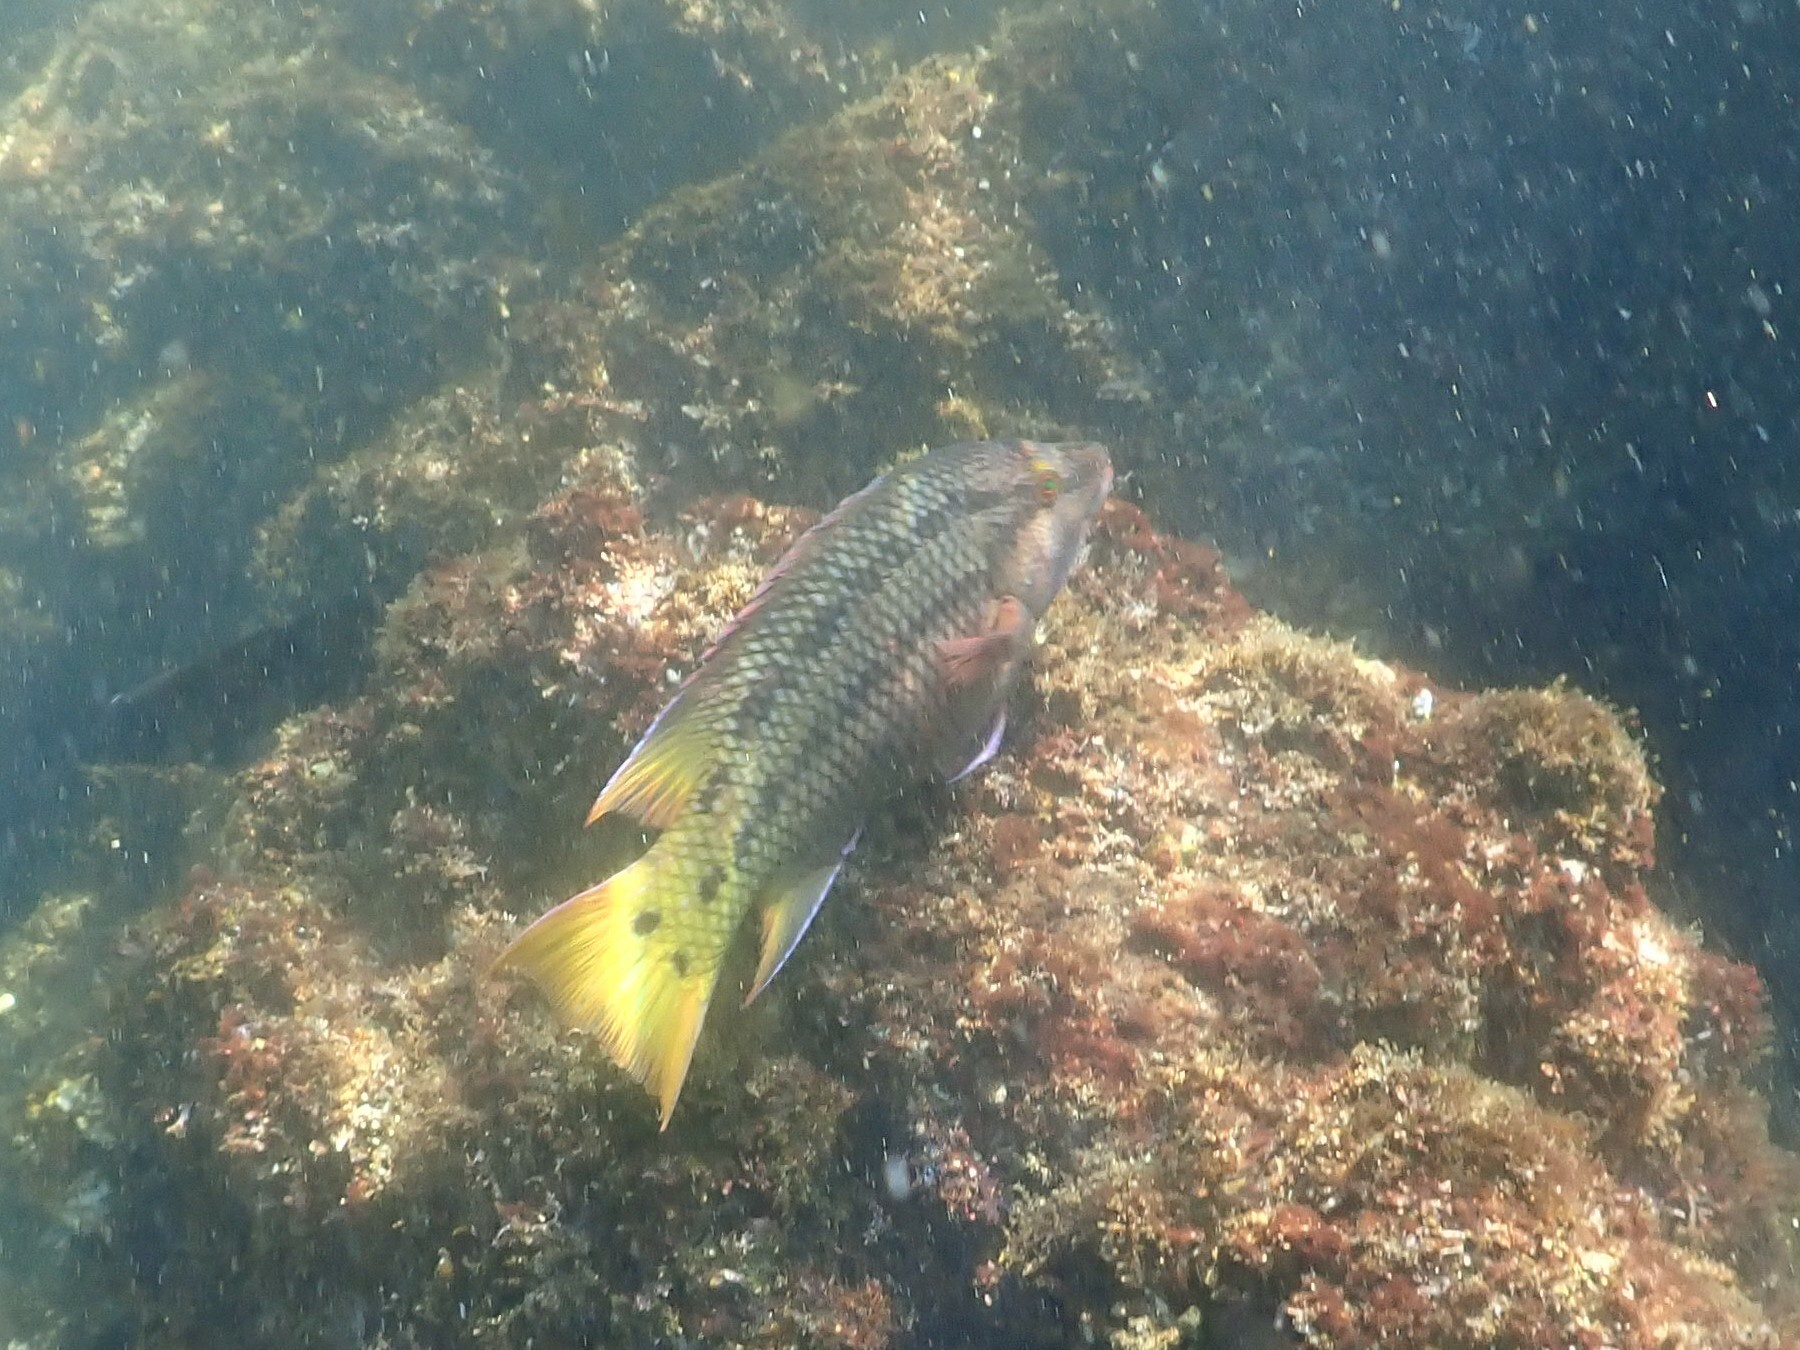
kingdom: Animalia
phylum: Chordata
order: Perciformes
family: Labridae
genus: Bodianus
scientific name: Bodianus diplotaenia
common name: Mexican hogfish
